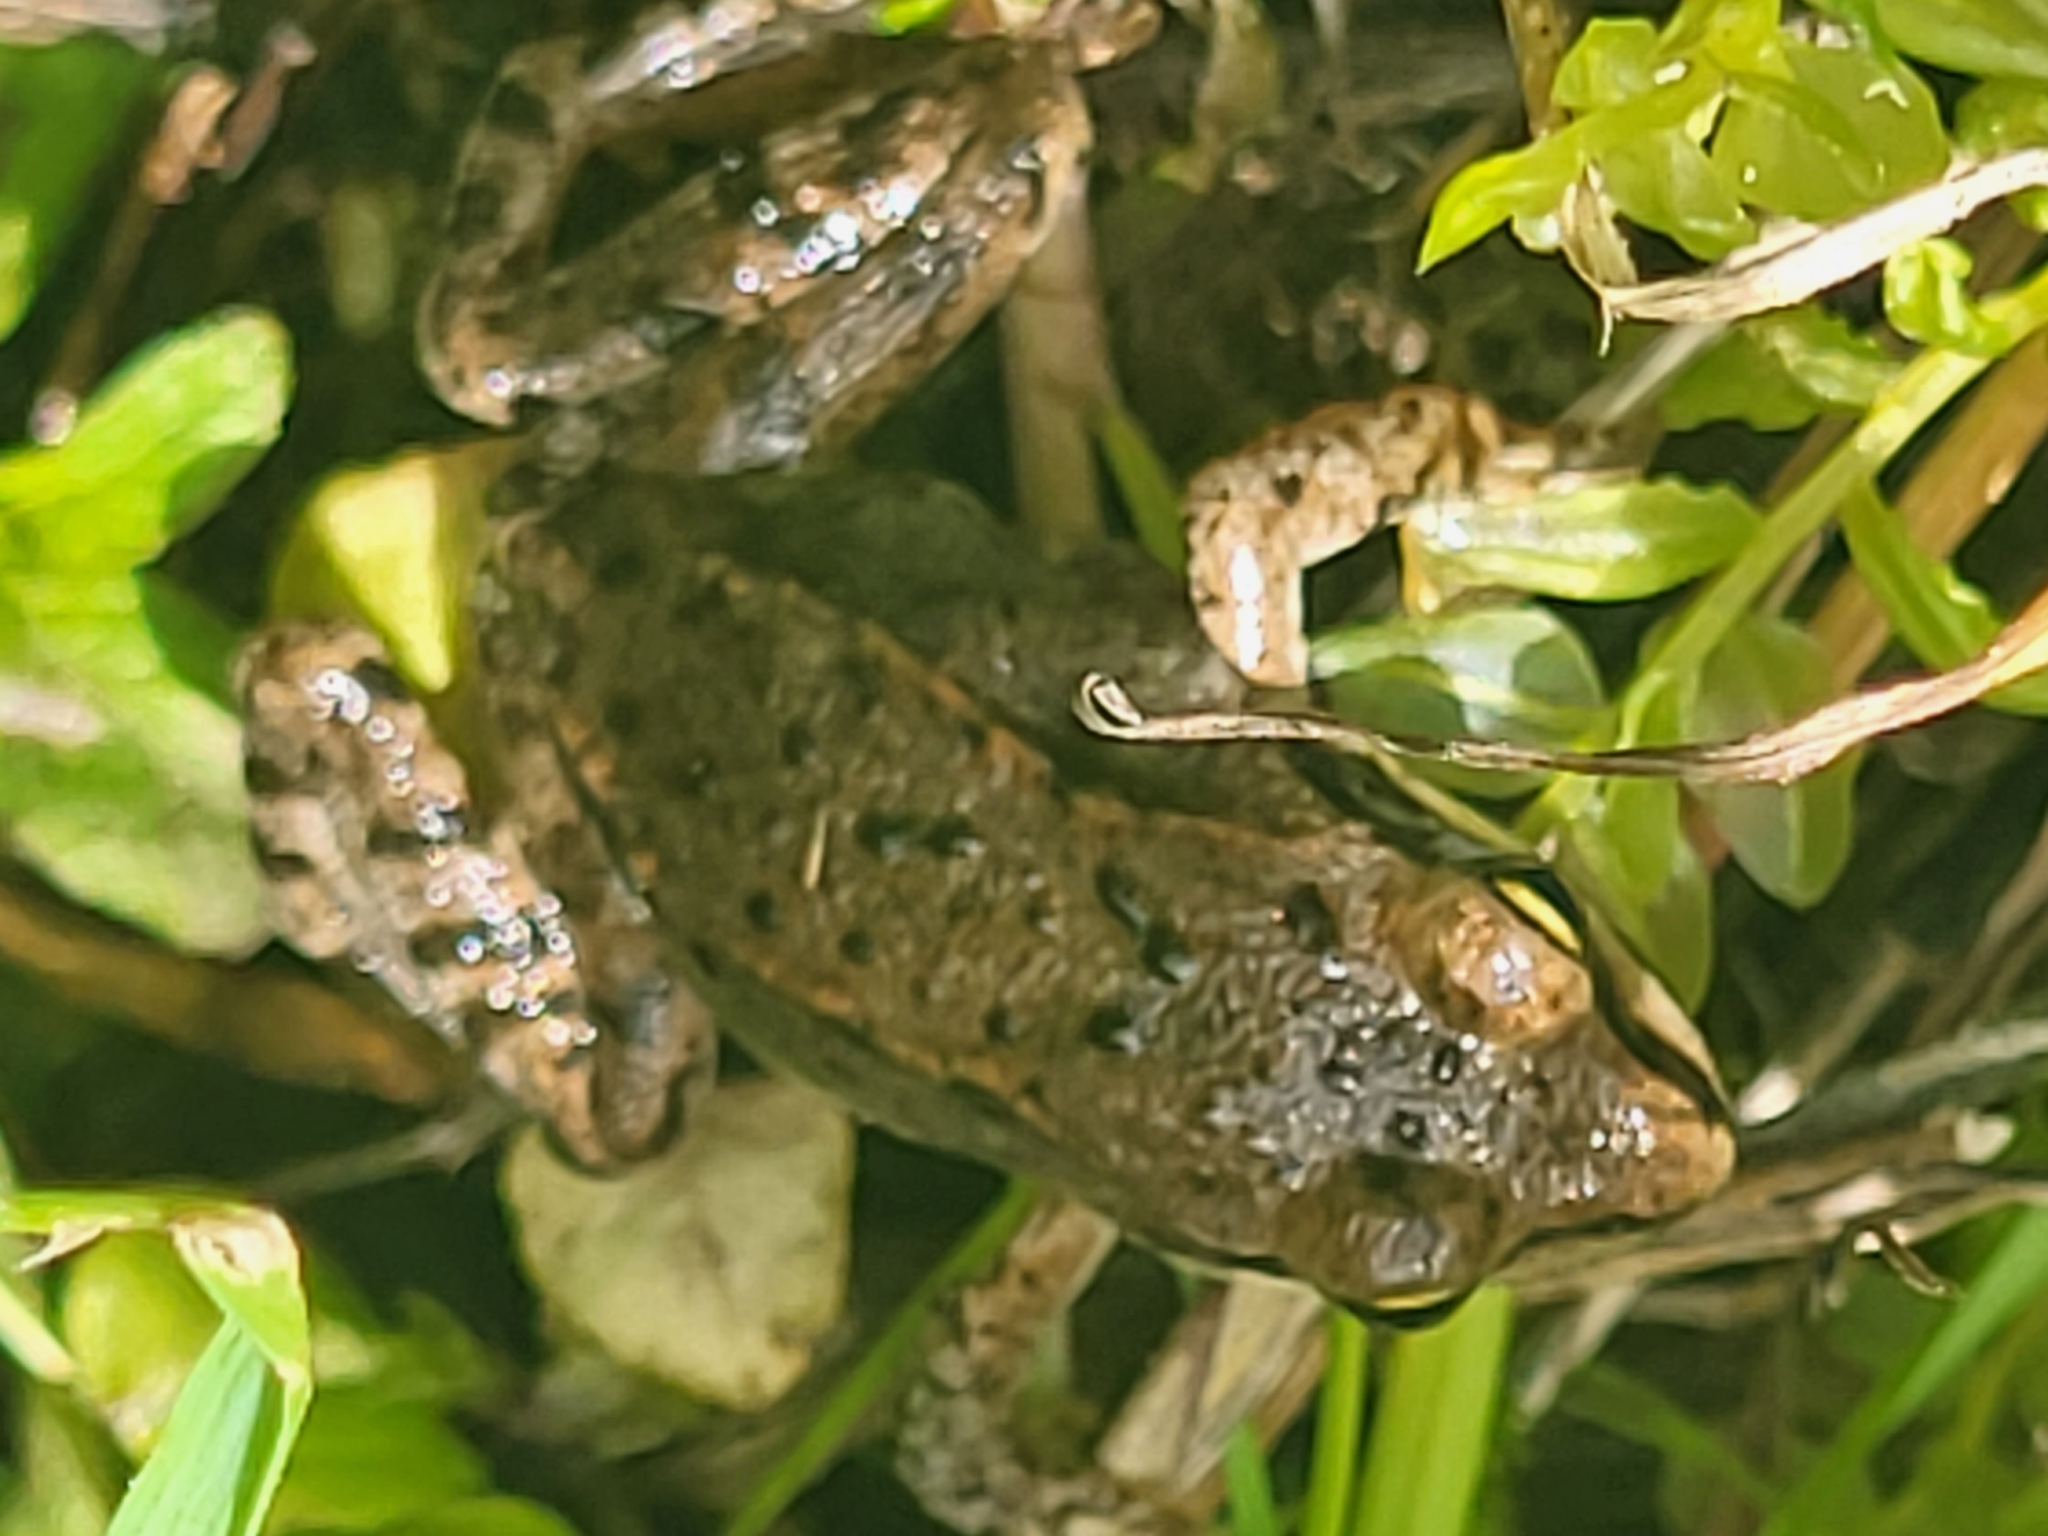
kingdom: Animalia
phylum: Chordata
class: Amphibia
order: Anura
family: Ranidae
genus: Rana
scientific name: Rana macrocnemis
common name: Banded frog
